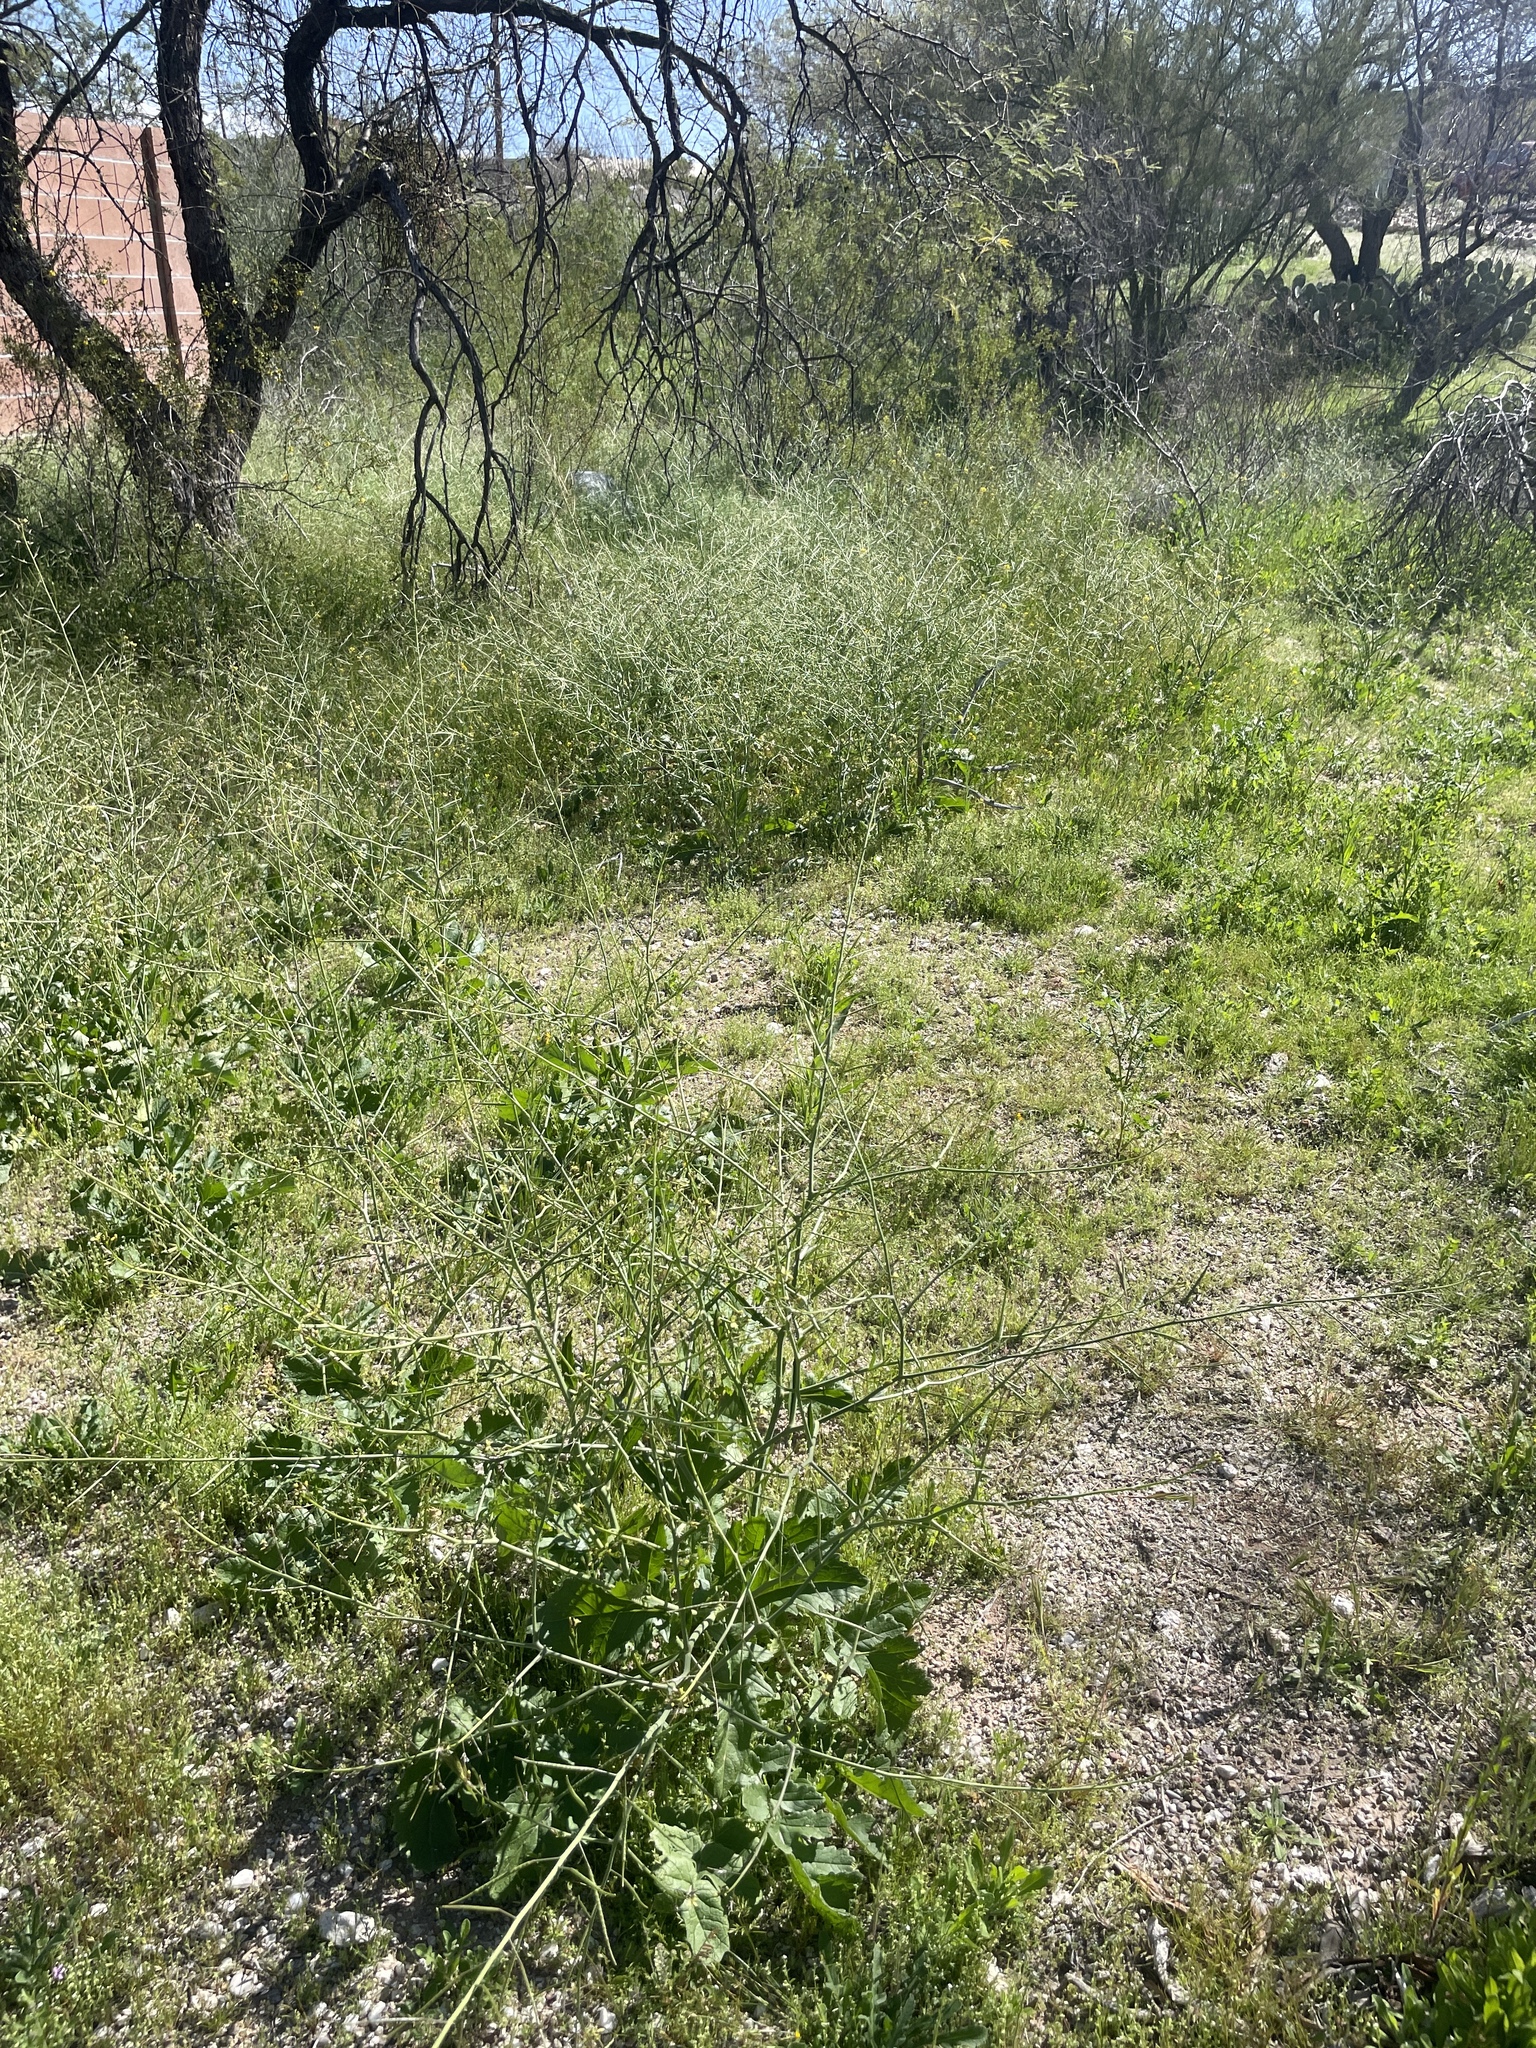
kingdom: Plantae
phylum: Tracheophyta
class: Magnoliopsida
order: Brassicales
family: Brassicaceae
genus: Brassica
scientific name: Brassica tournefortii
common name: Pale cabbage
